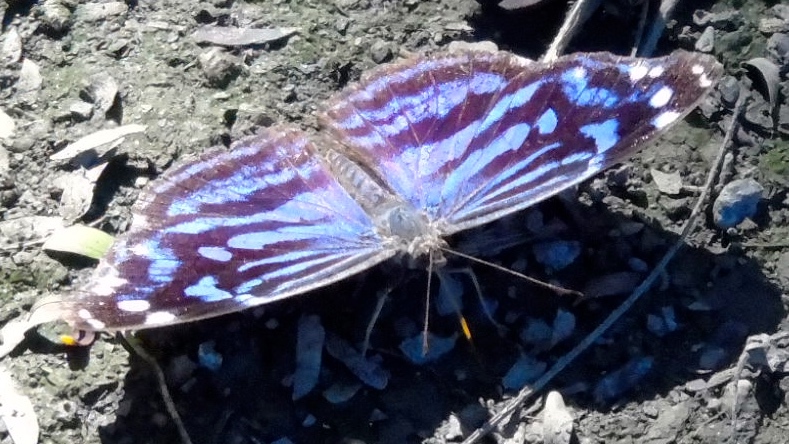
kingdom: Animalia
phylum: Arthropoda
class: Insecta
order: Lepidoptera
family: Nymphalidae
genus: Myscelia
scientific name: Myscelia ethusa
